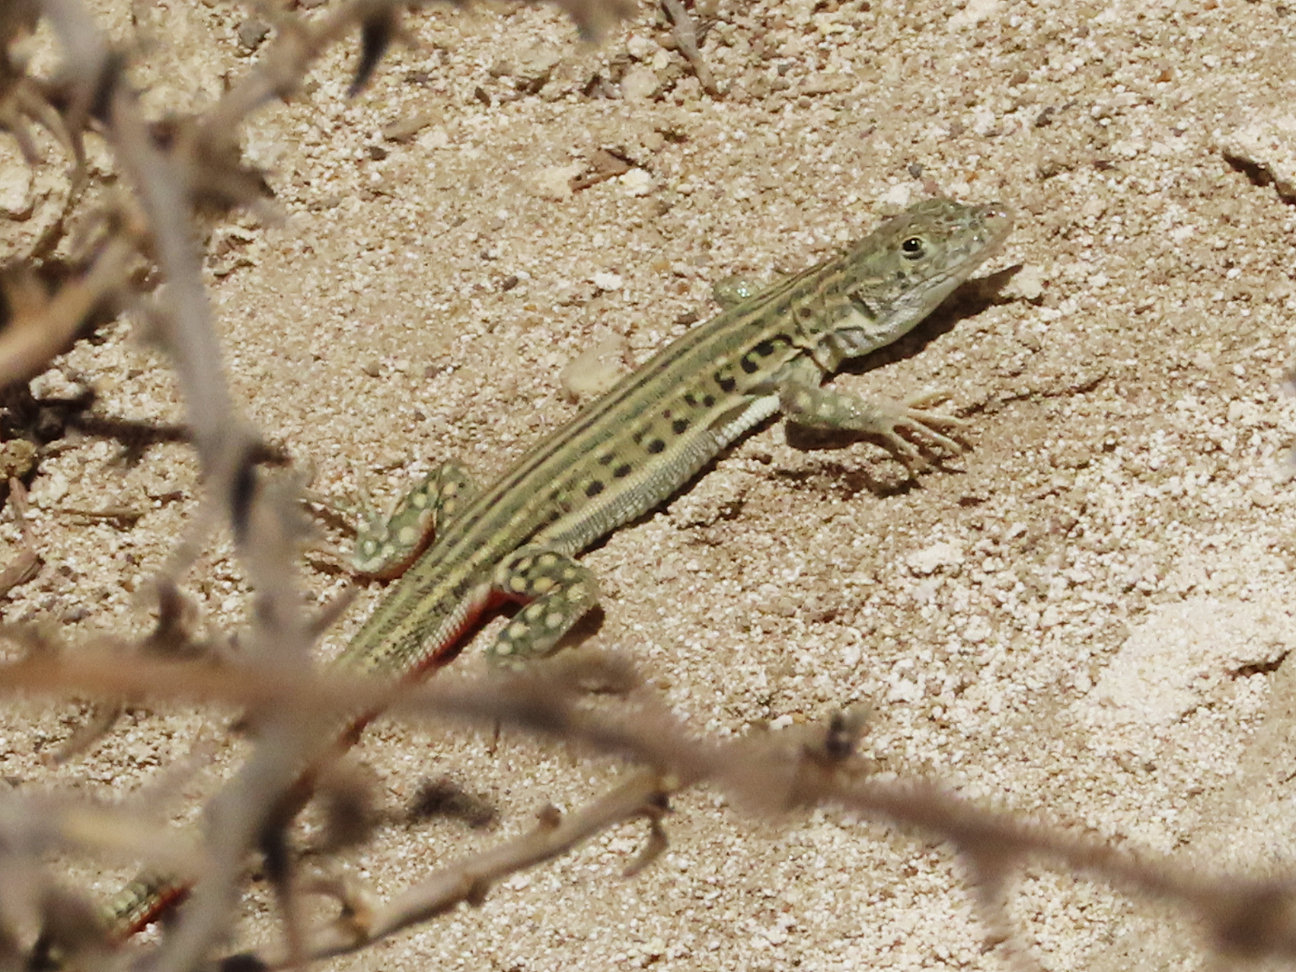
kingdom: Animalia
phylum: Chordata
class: Squamata
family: Lacertidae
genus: Eremias
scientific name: Eremias velox
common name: Central asian racerunner
